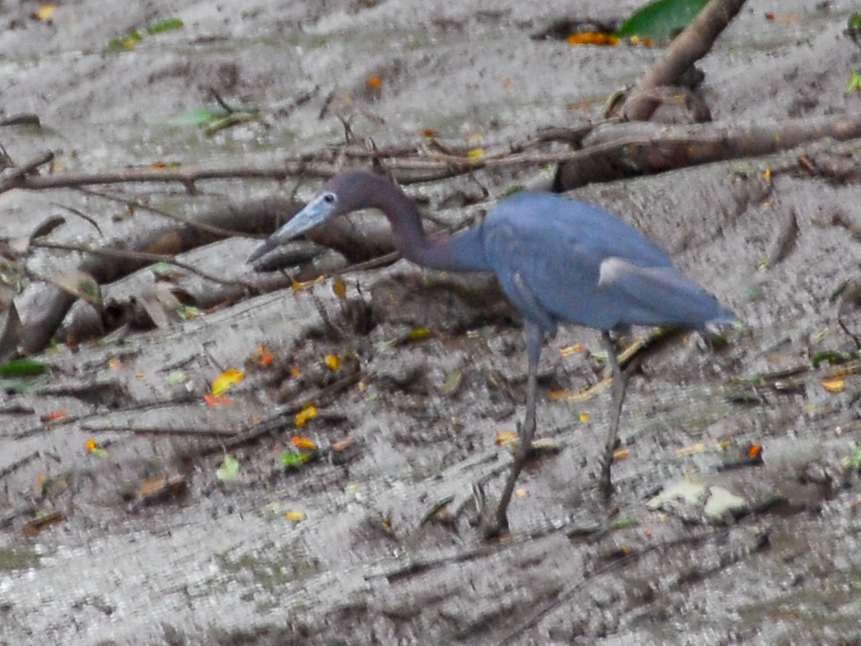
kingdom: Animalia
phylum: Chordata
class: Aves
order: Pelecaniformes
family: Ardeidae
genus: Egretta
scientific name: Egretta caerulea
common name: Little blue heron
